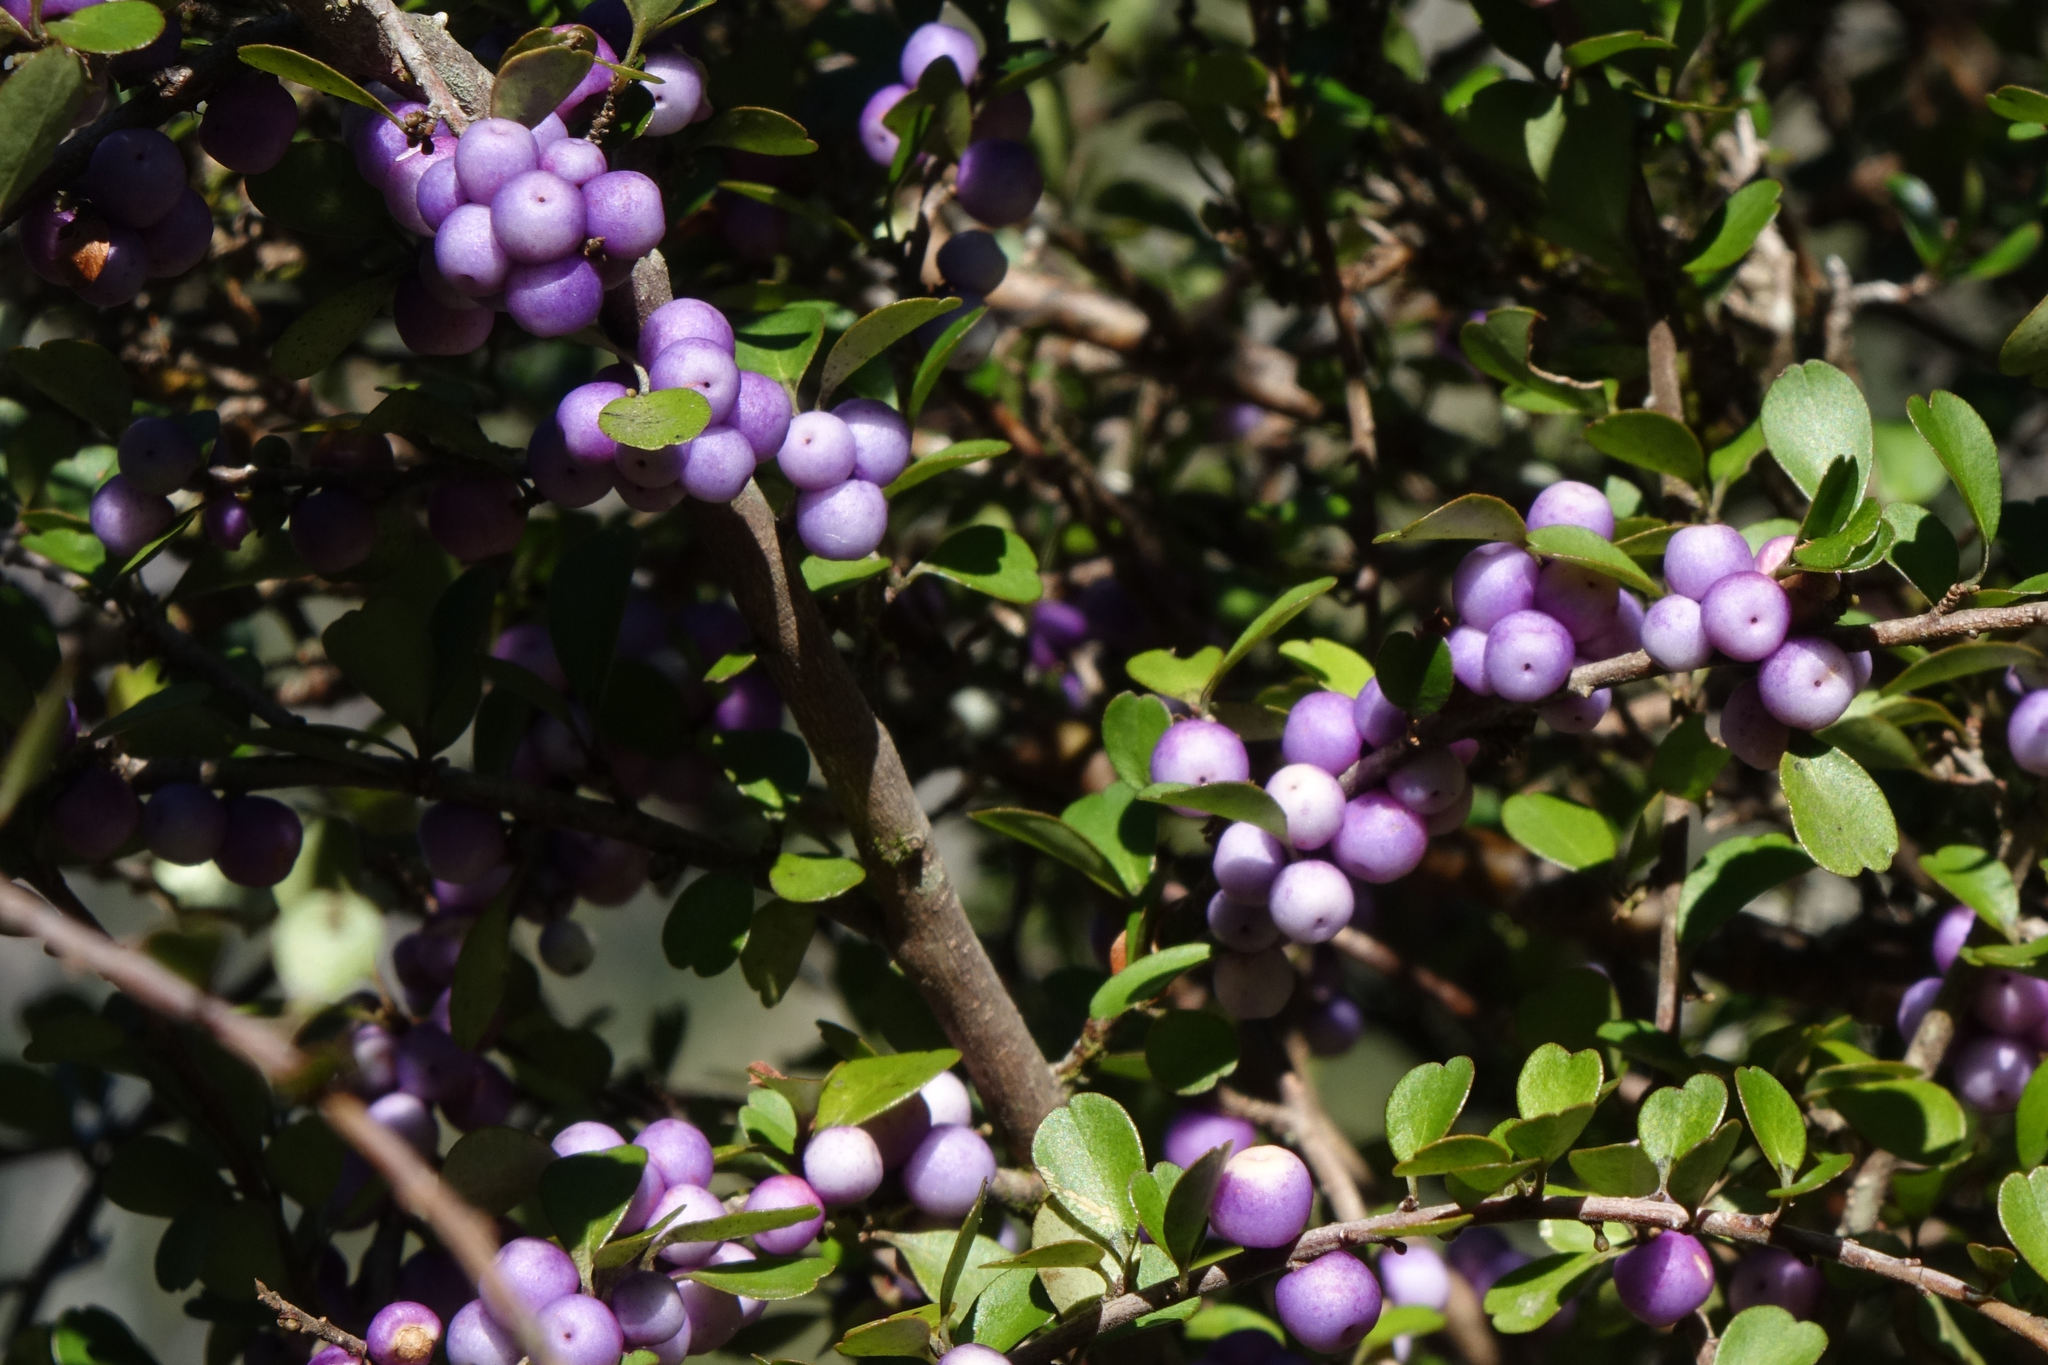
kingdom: Plantae
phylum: Tracheophyta
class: Magnoliopsida
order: Ericales
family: Primulaceae
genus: Myrsine
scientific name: Myrsine divaricata
